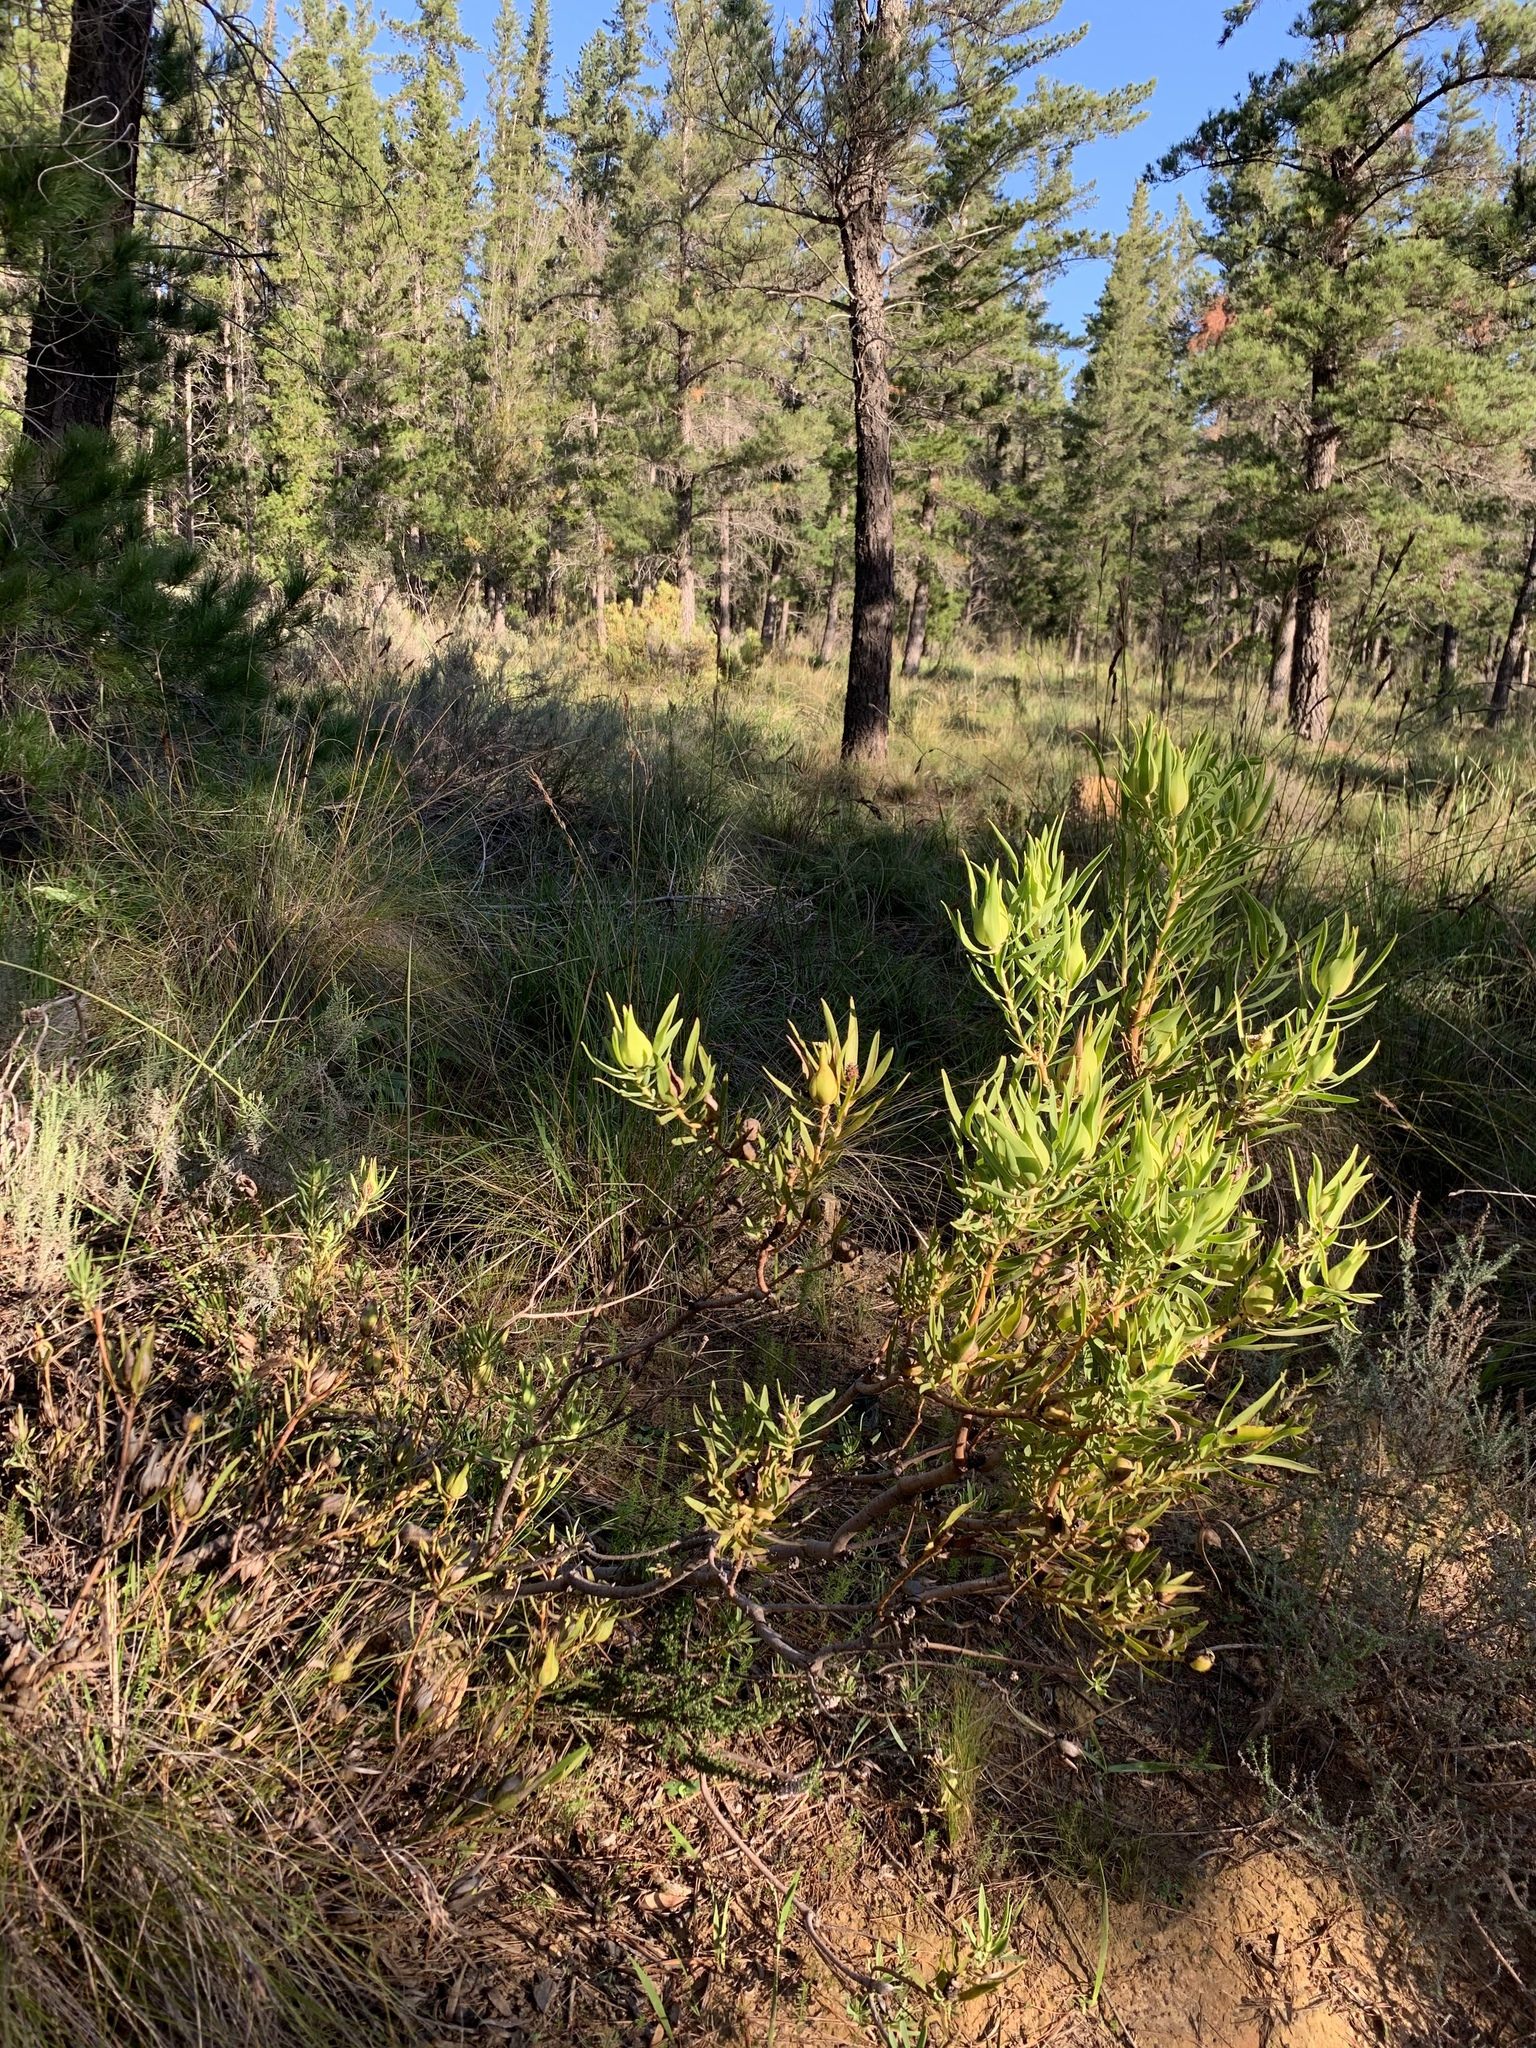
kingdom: Plantae
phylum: Tracheophyta
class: Magnoliopsida
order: Proteales
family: Proteaceae
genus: Leucadendron
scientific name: Leucadendron salignum
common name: Common sunshine conebush
